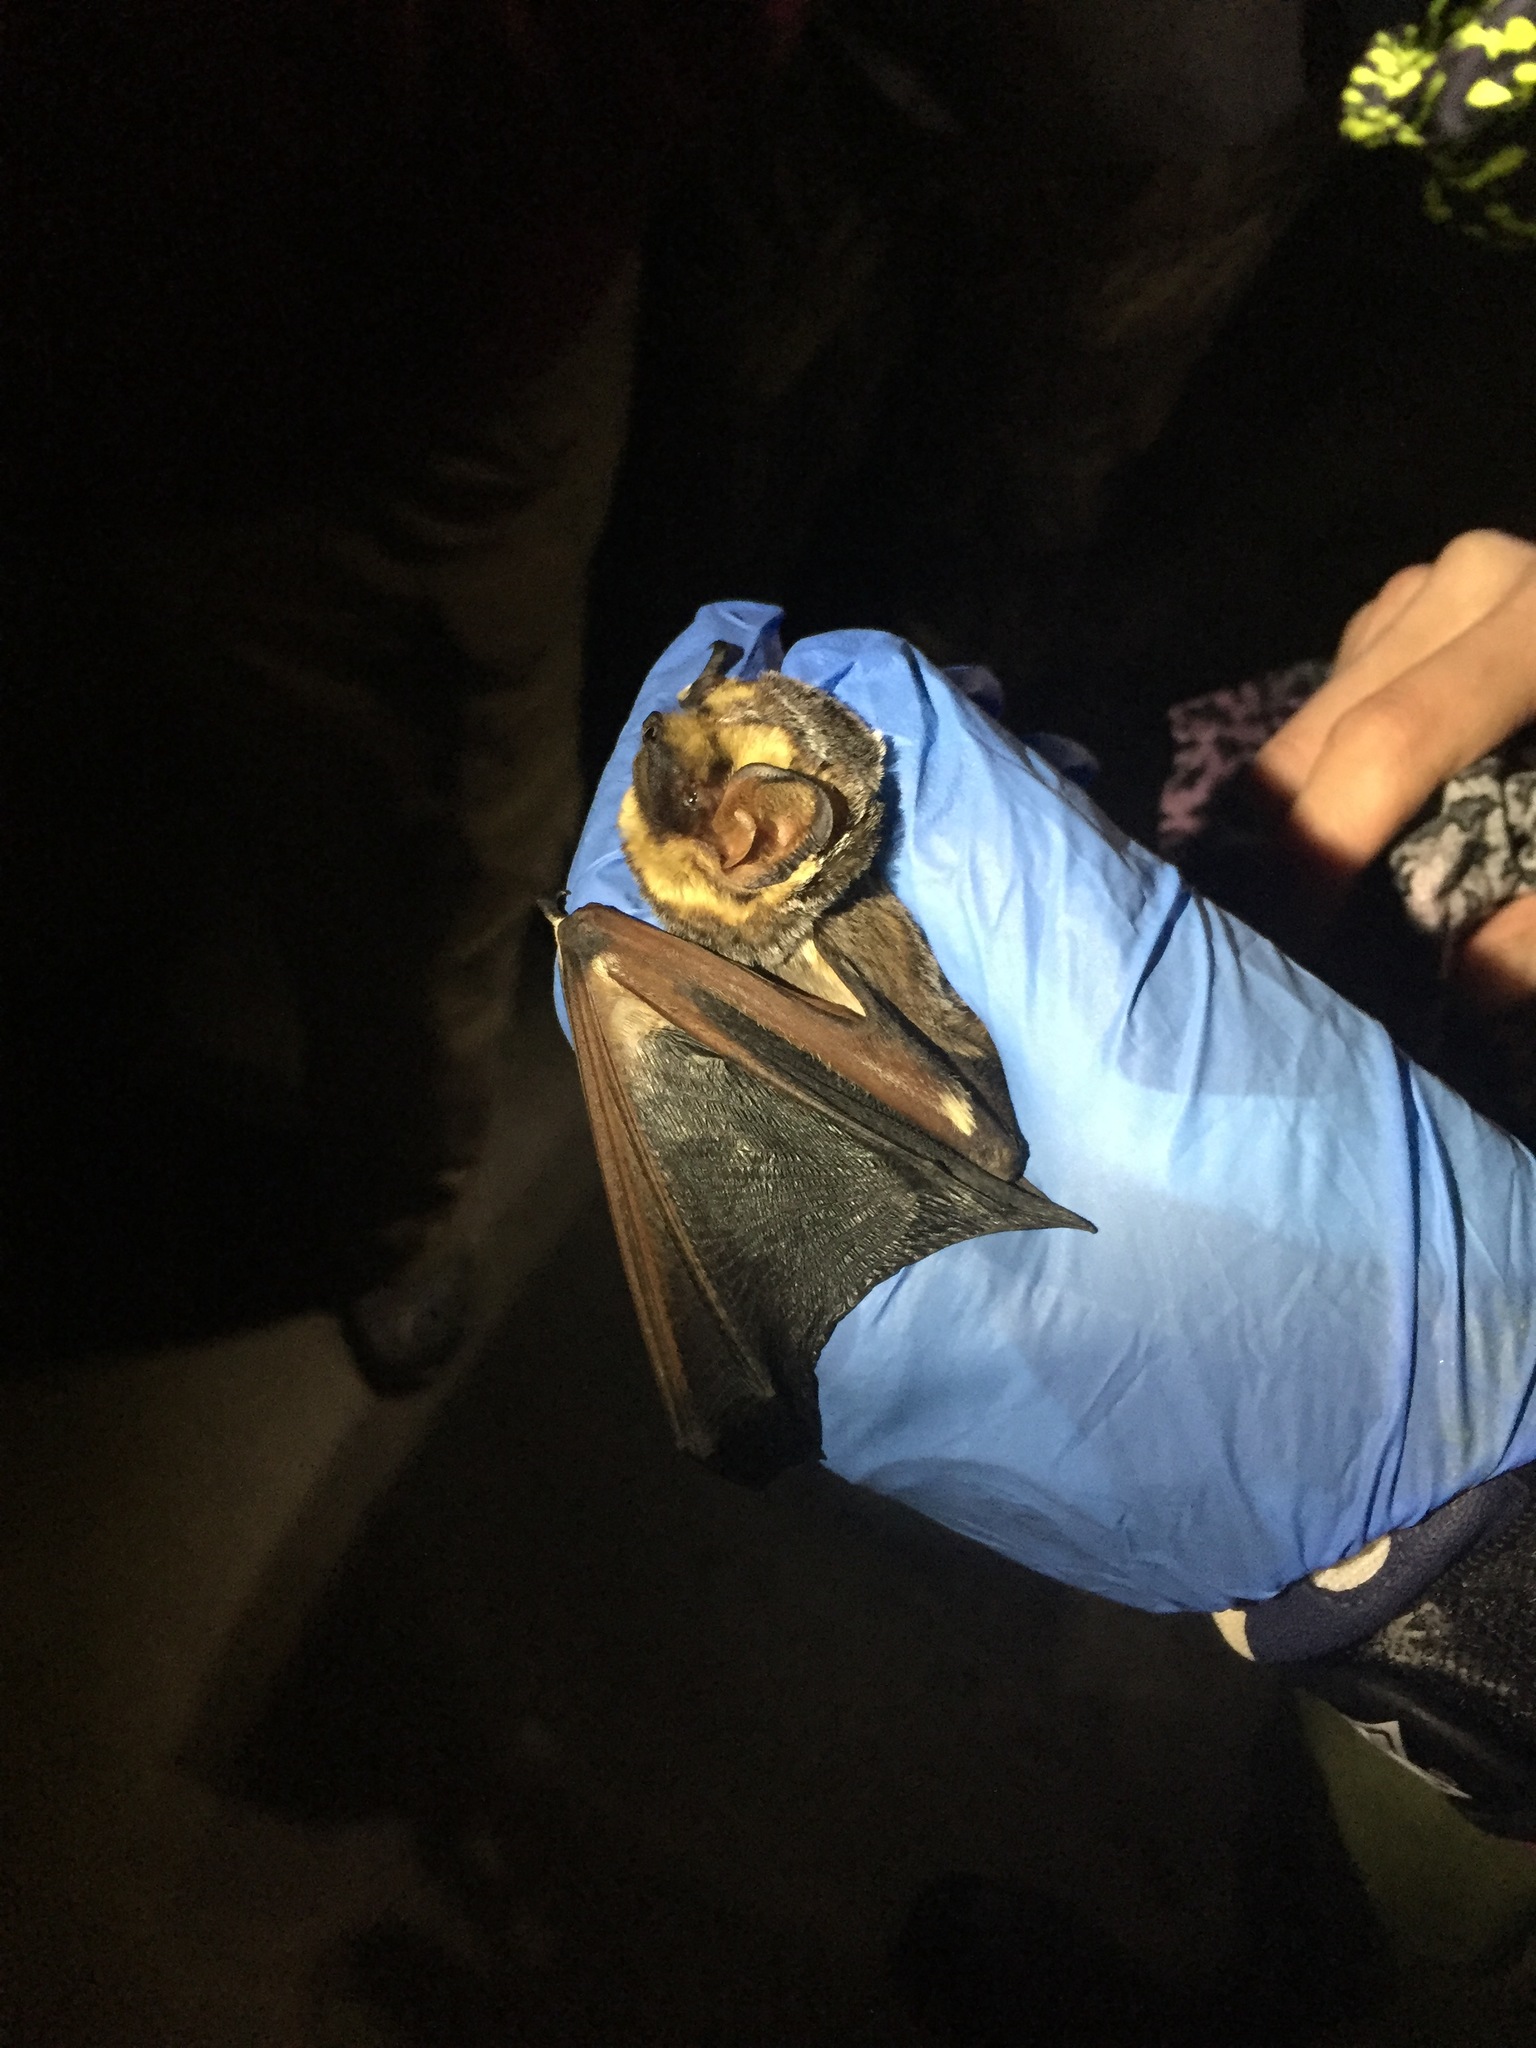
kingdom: Animalia
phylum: Chordata
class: Mammalia
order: Chiroptera
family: Vespertilionidae
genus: Aeorestes
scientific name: Aeorestes cinereus
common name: North american hoary bat
